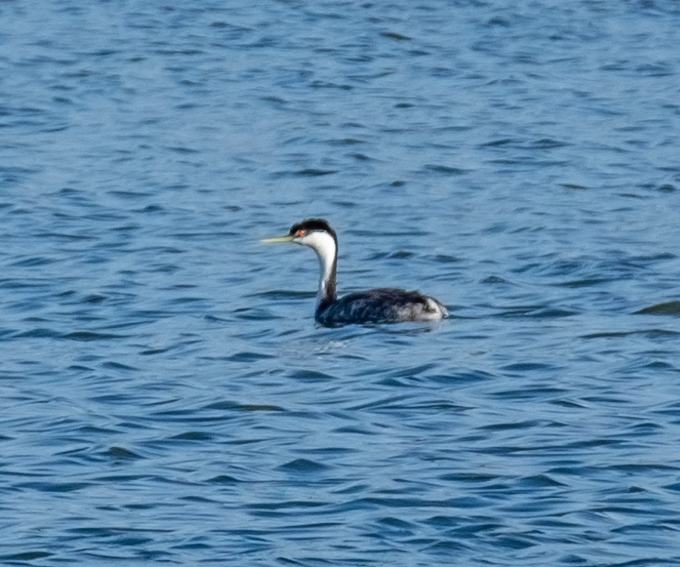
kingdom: Animalia
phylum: Chordata
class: Aves
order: Podicipediformes
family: Podicipedidae
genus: Aechmophorus
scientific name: Aechmophorus occidentalis
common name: Western grebe
